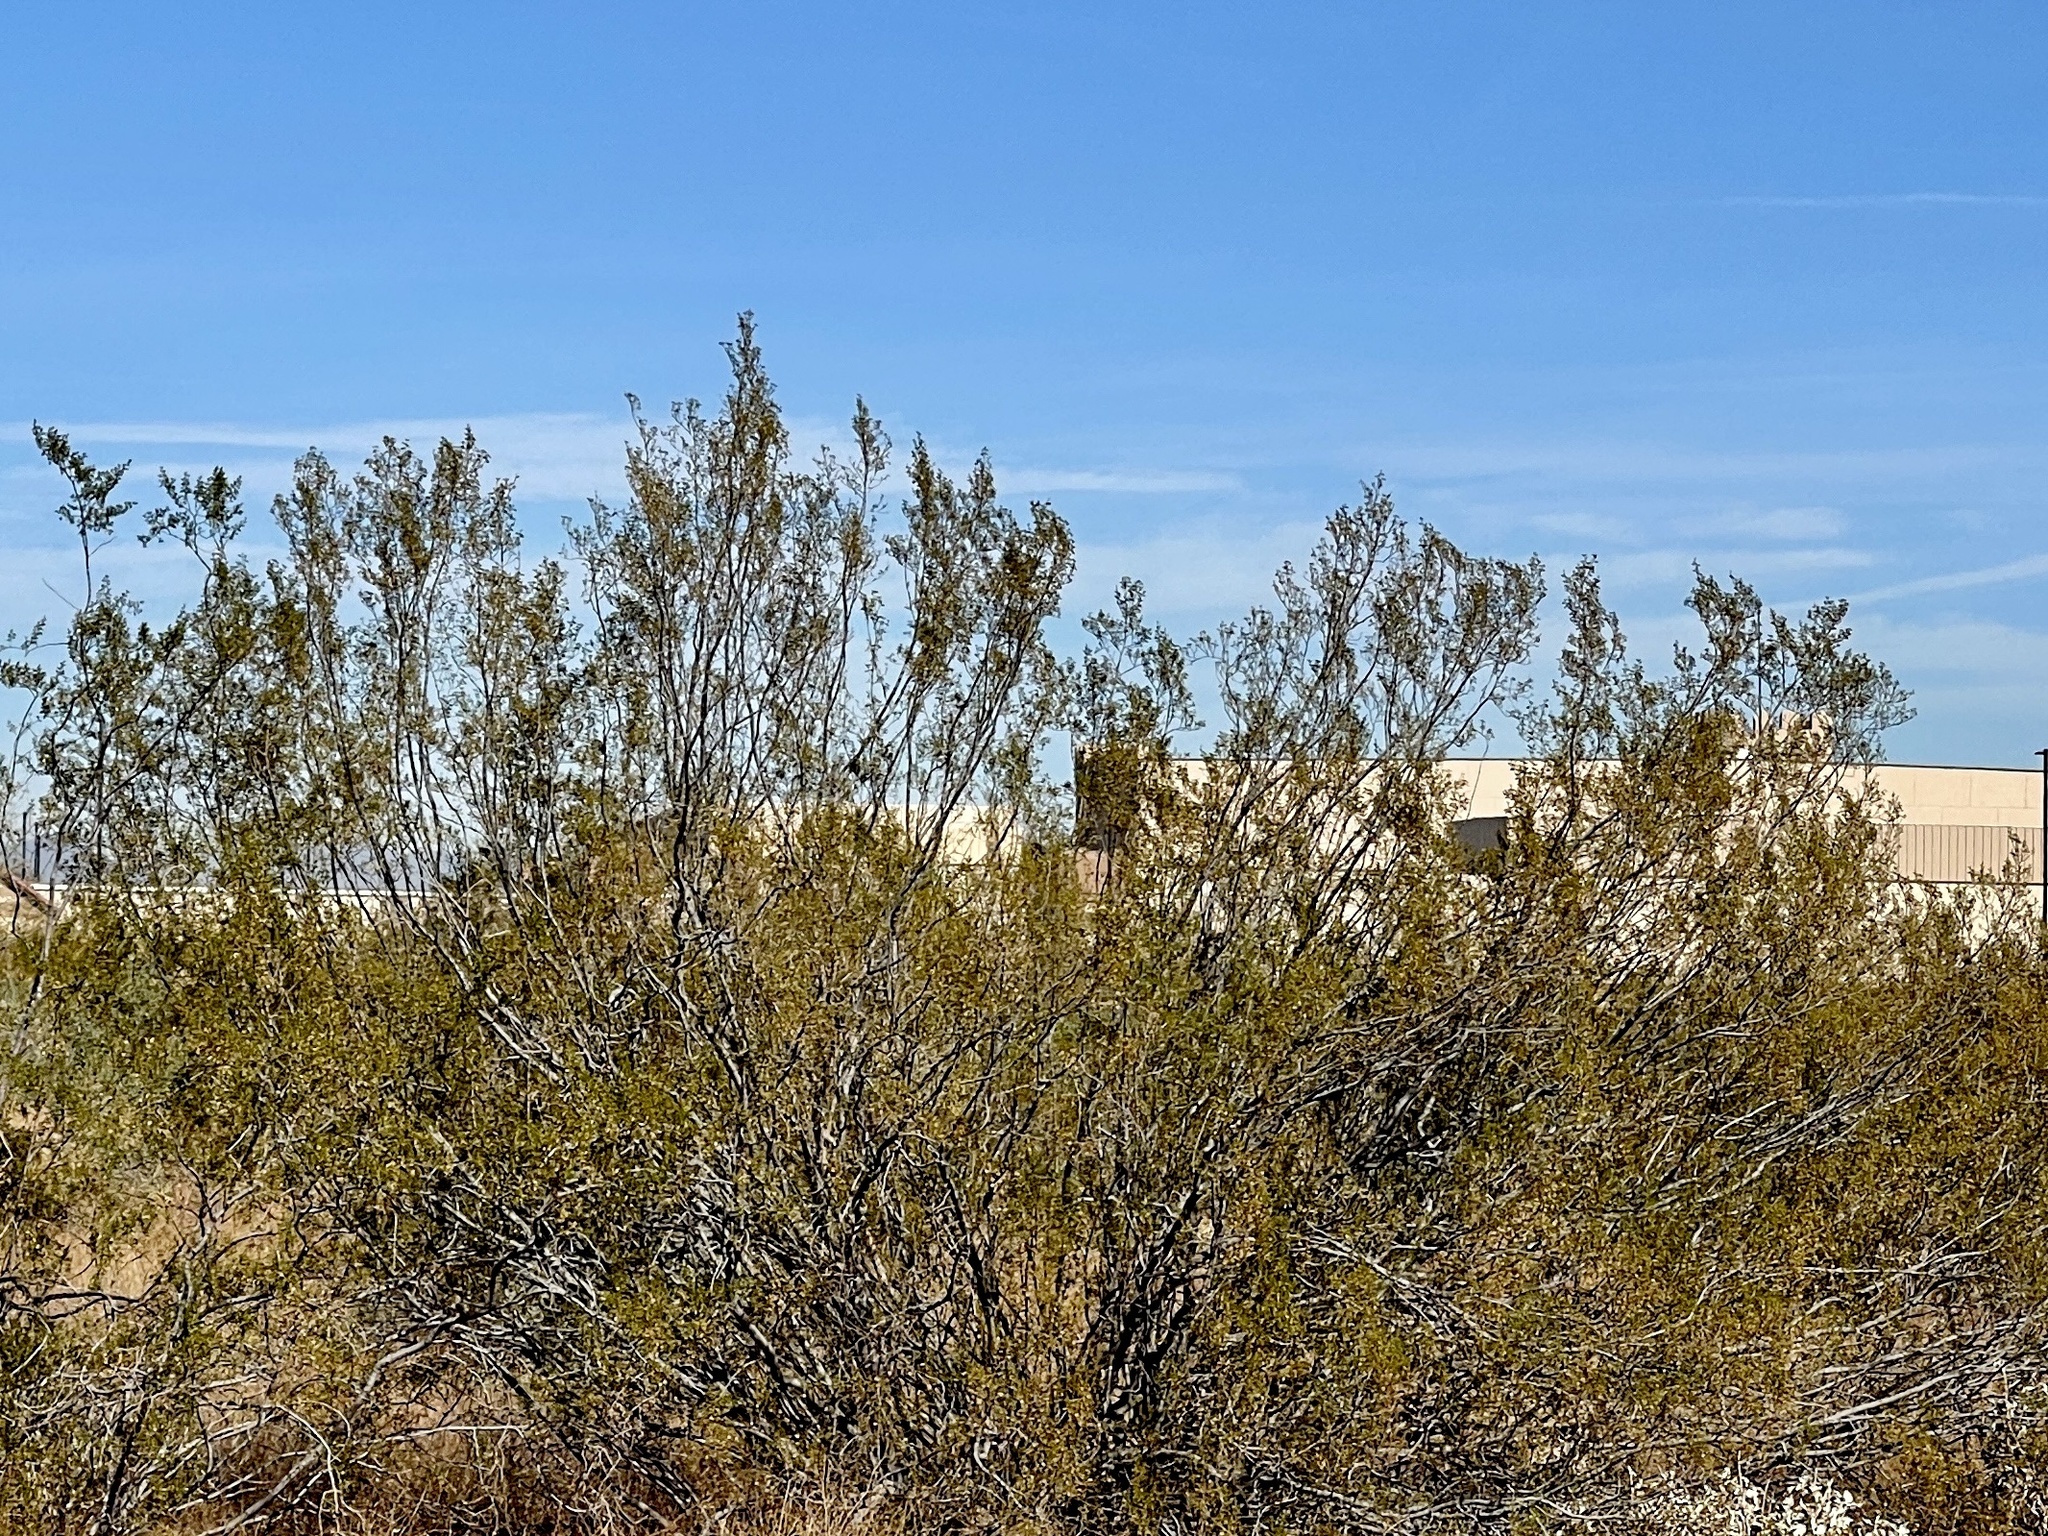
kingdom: Plantae
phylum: Tracheophyta
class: Magnoliopsida
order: Zygophyllales
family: Zygophyllaceae
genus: Larrea
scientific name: Larrea tridentata
